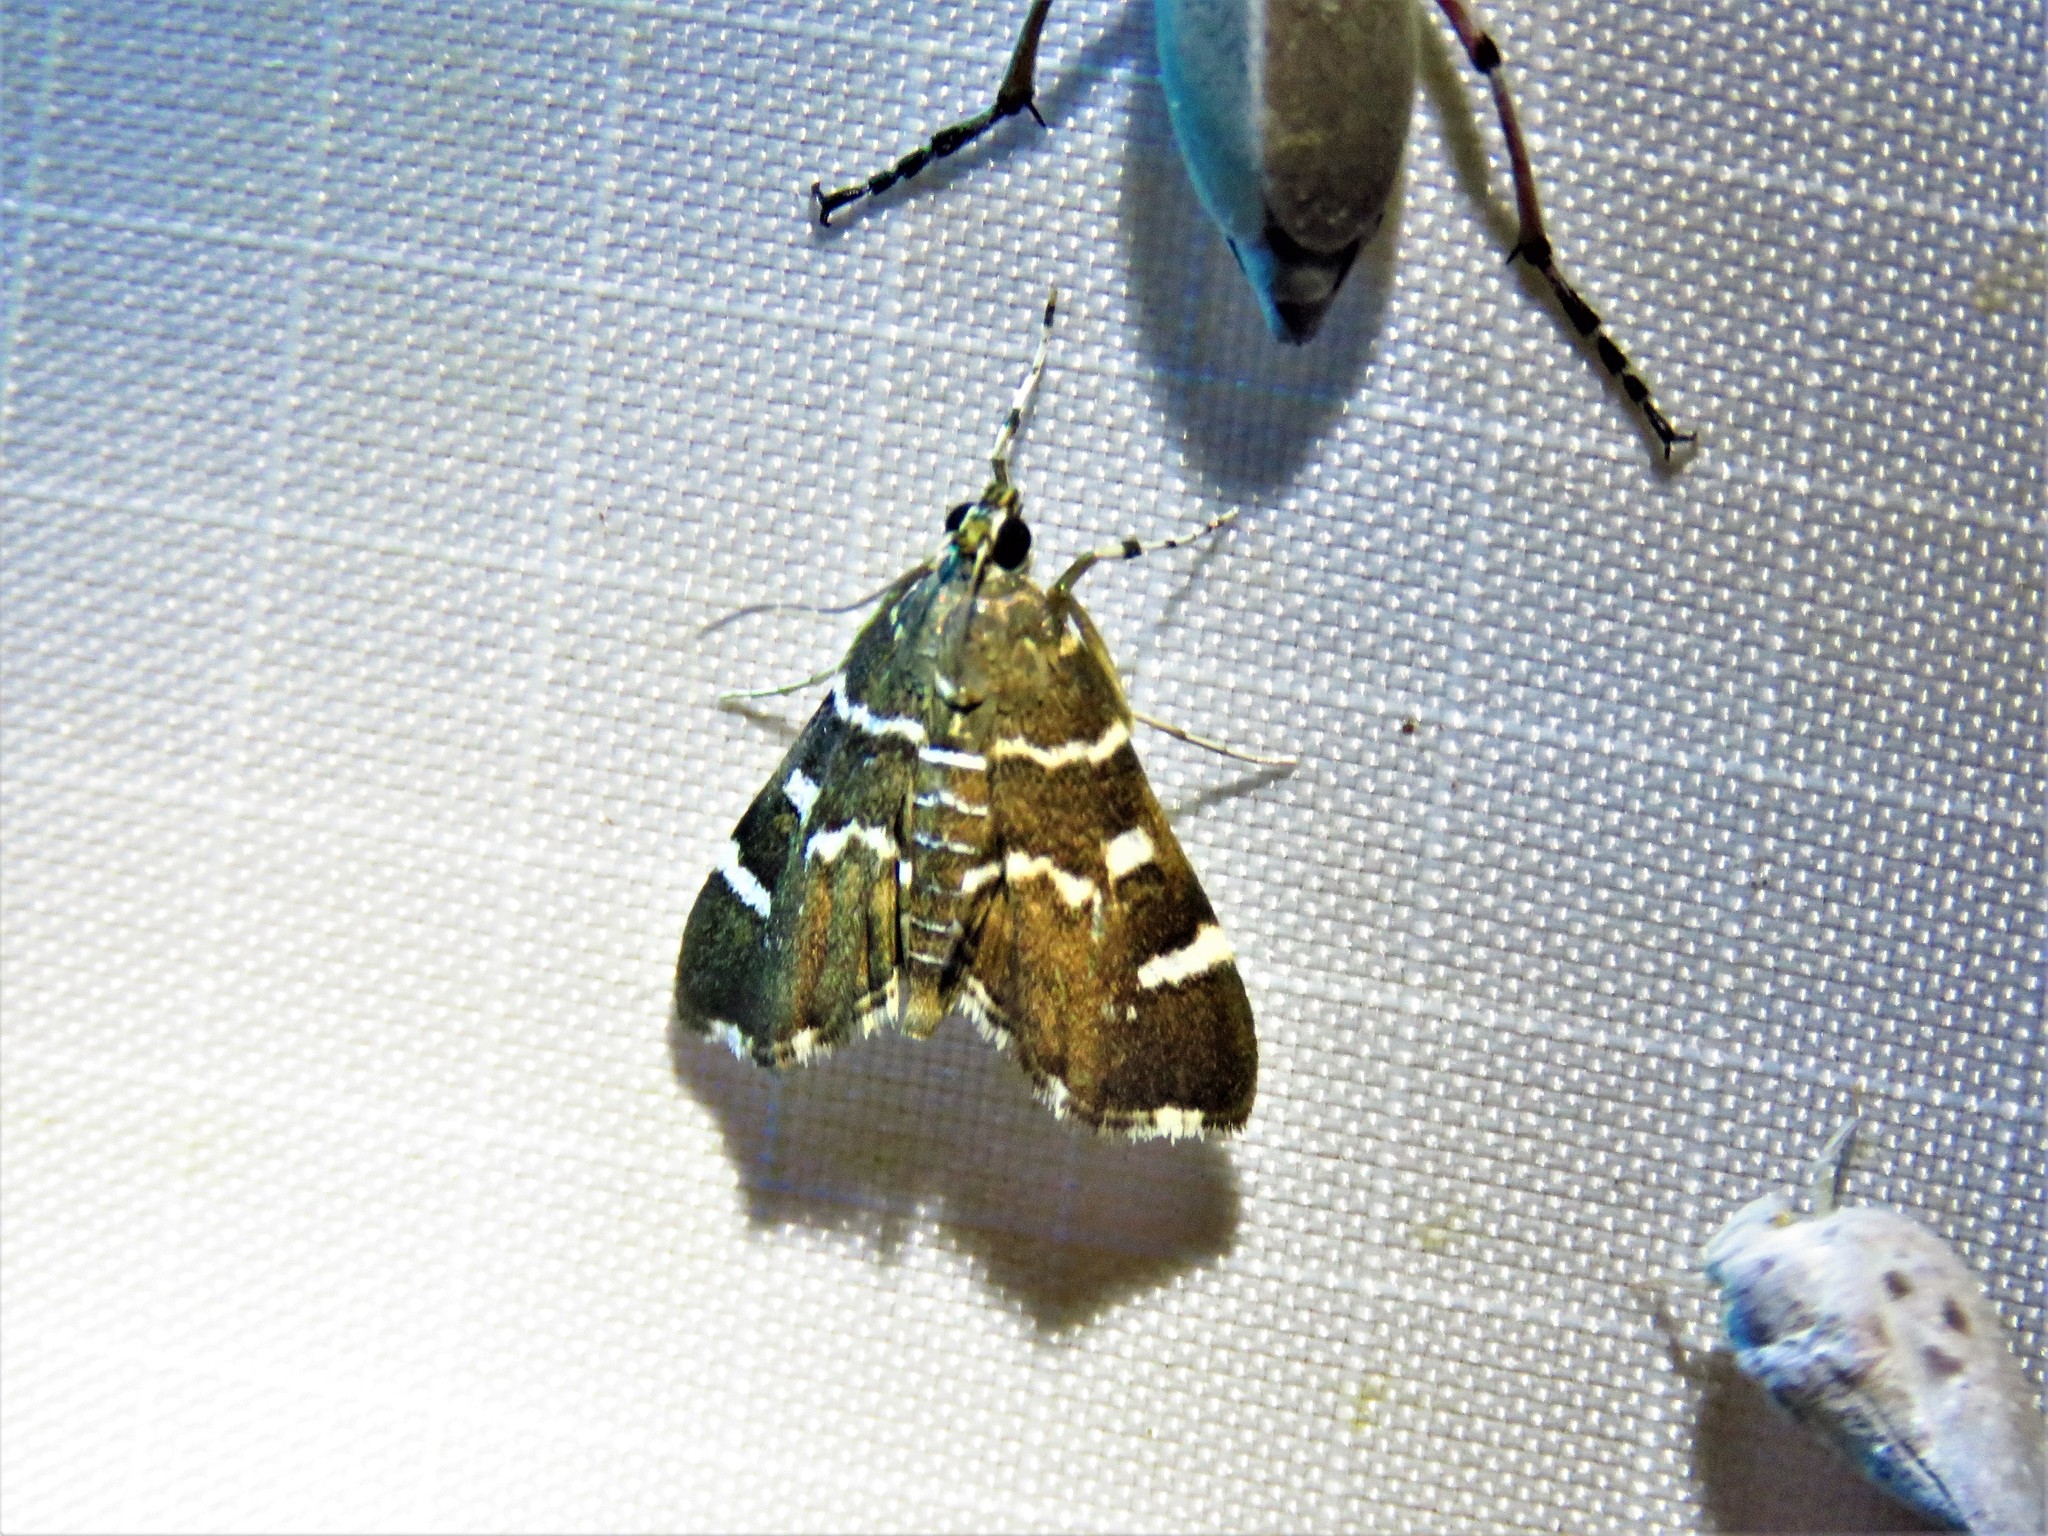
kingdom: Animalia
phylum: Arthropoda
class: Insecta
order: Lepidoptera
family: Crambidae
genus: Hymenia
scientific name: Hymenia perspectalis
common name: Spotted beet webworm
